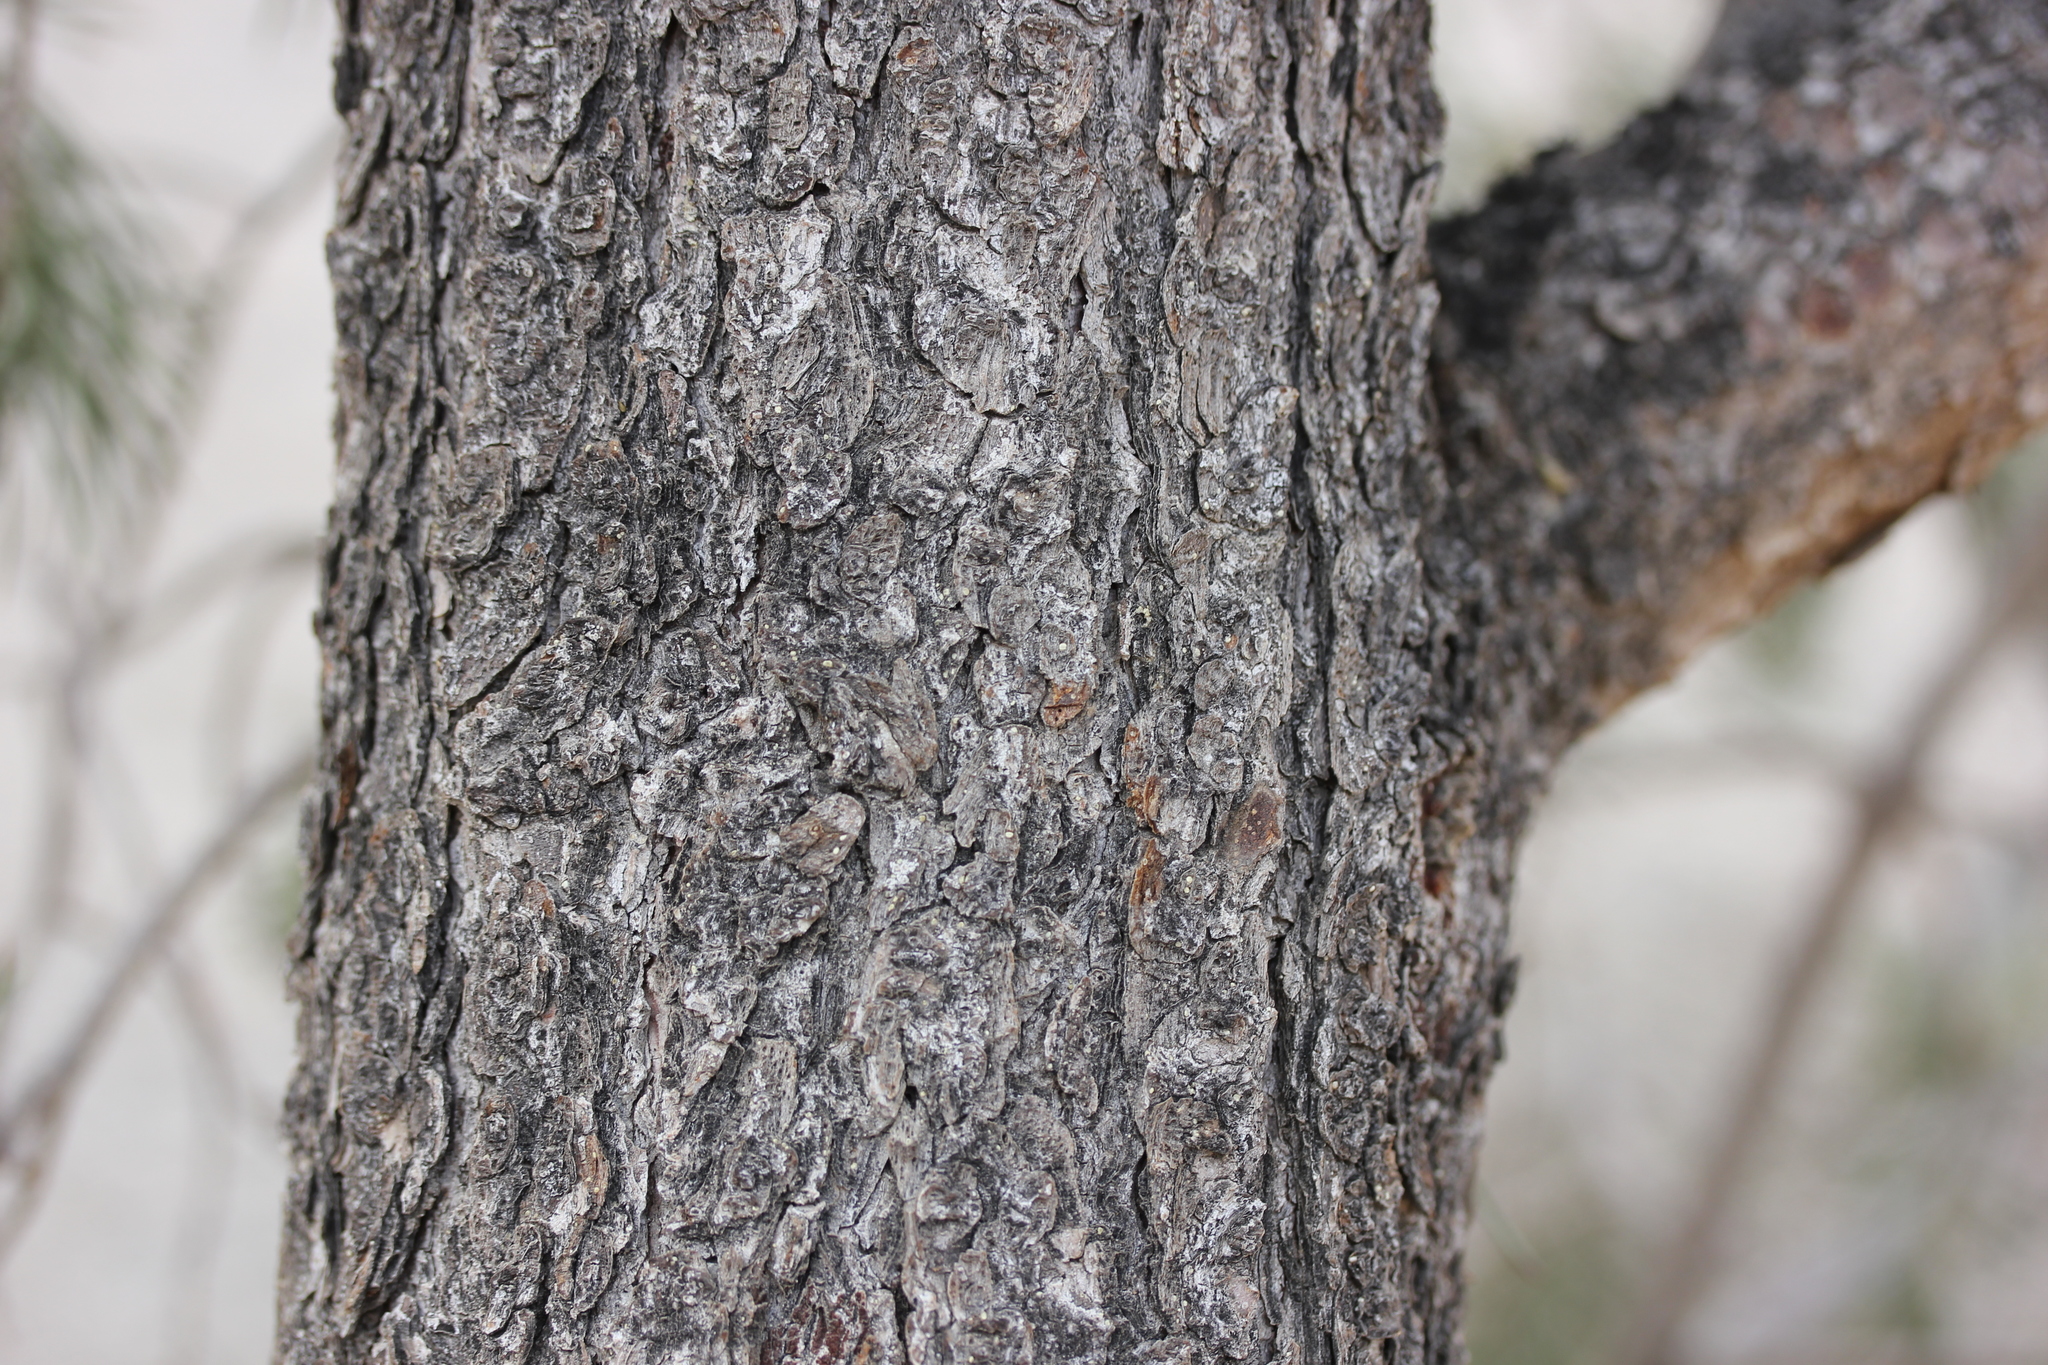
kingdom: Plantae
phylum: Tracheophyta
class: Pinopsida
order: Pinales
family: Pinaceae
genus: Pinus
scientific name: Pinus monophylla
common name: One-leaved nut pine
